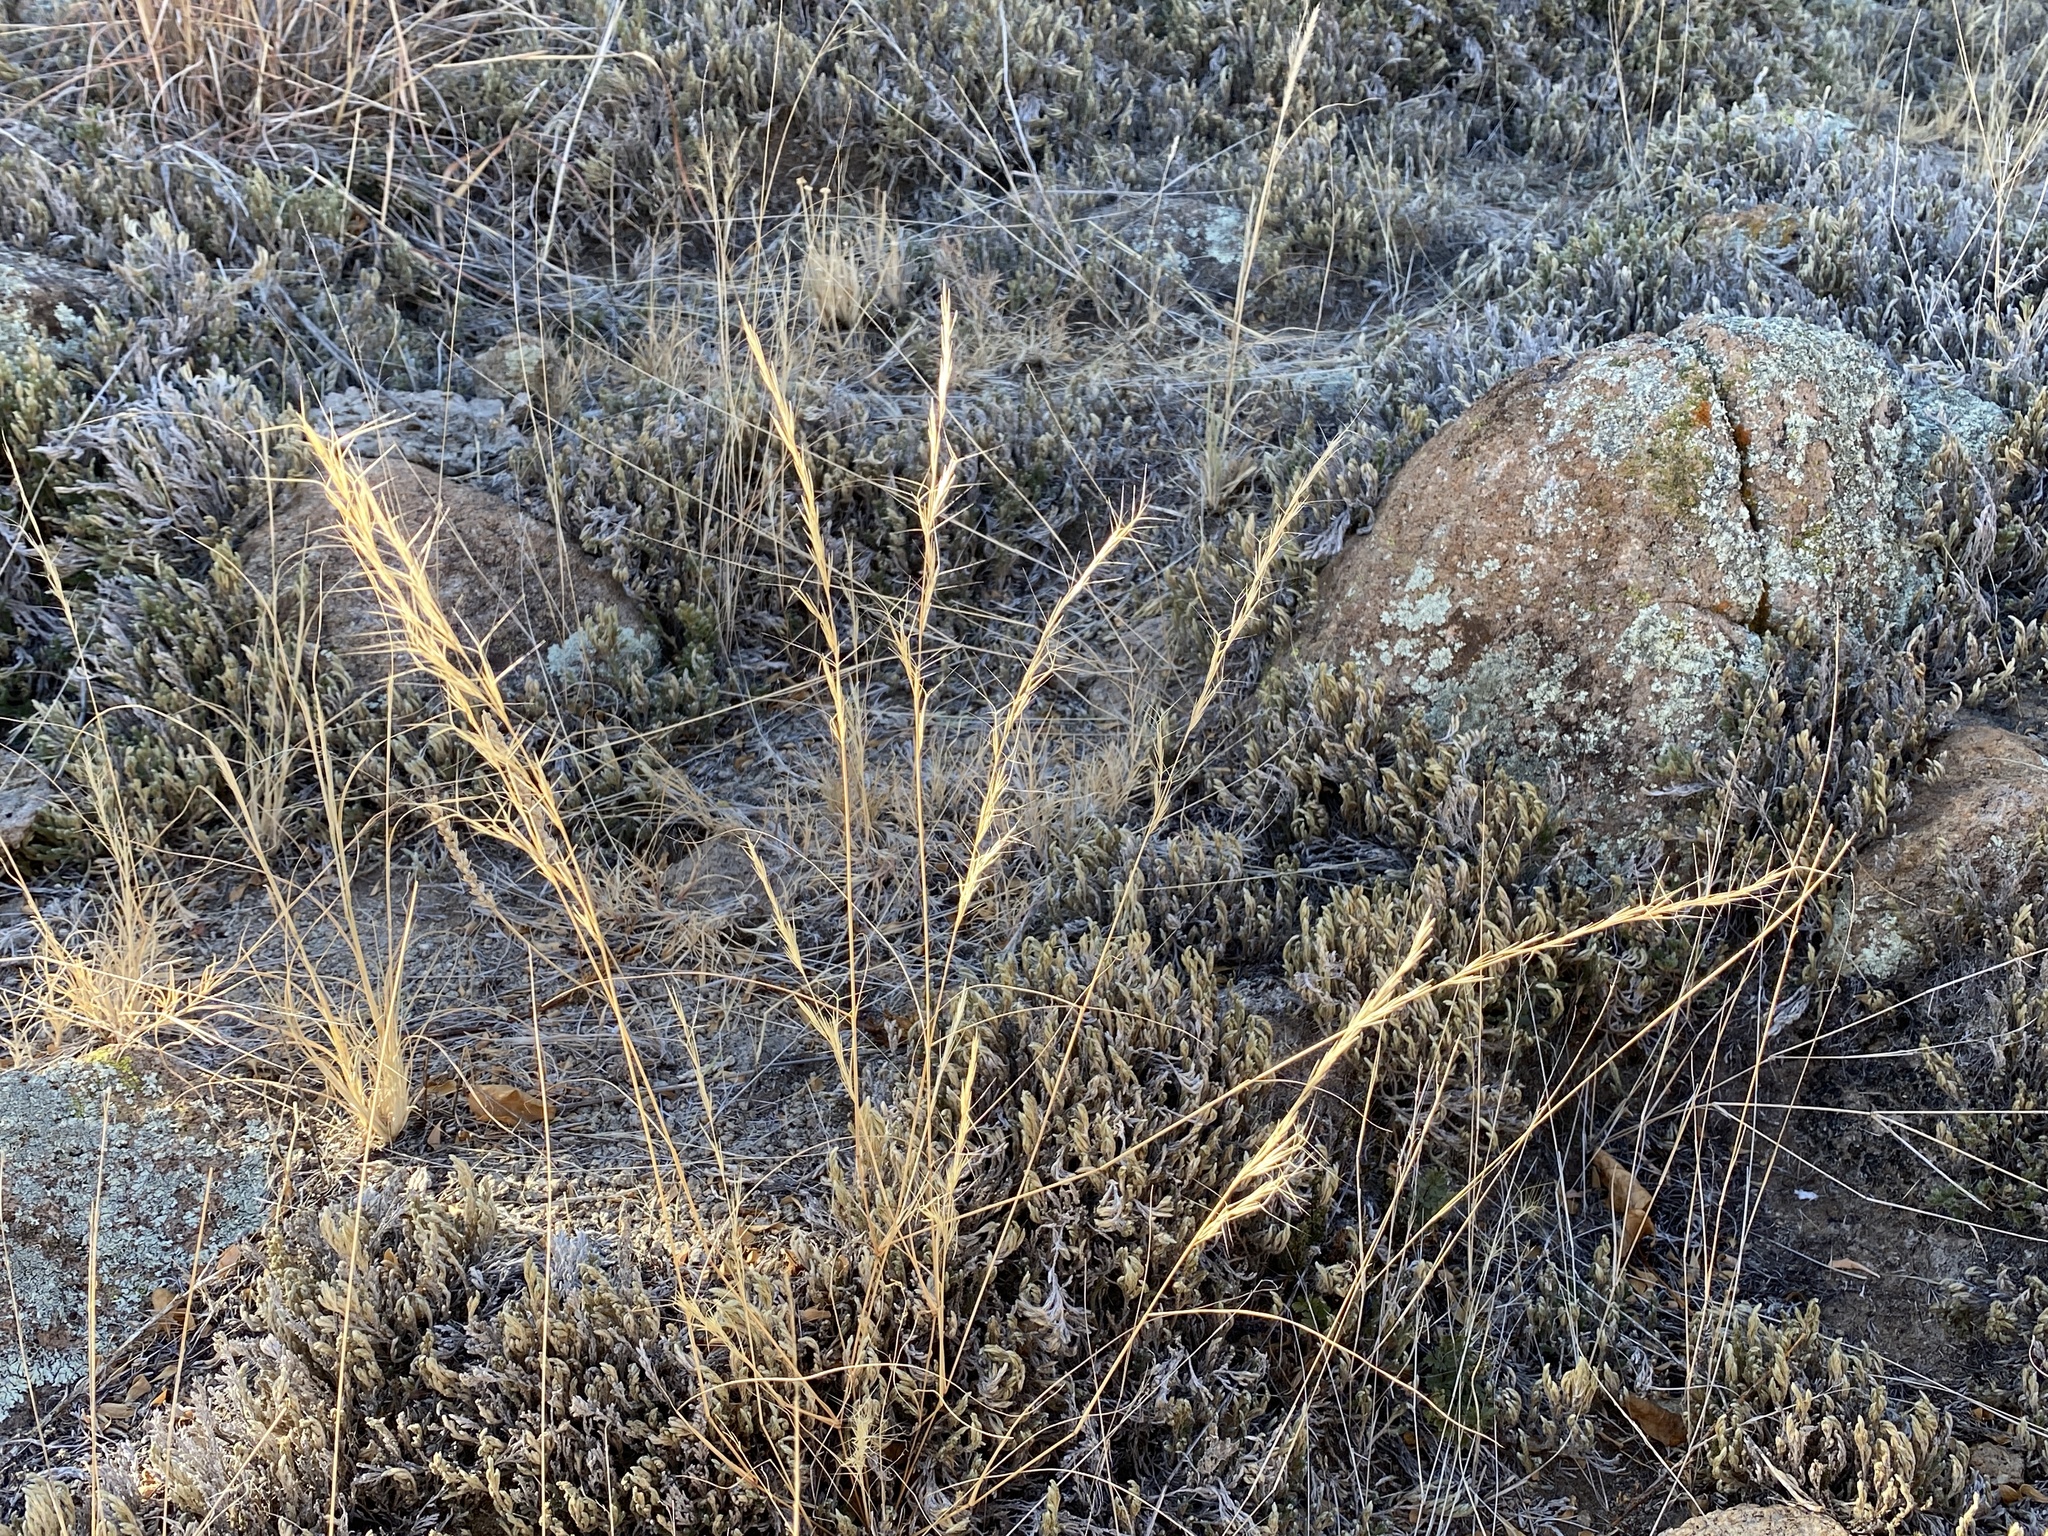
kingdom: Plantae
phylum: Tracheophyta
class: Liliopsida
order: Poales
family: Poaceae
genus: Aristida
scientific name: Aristida adscensionis
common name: Sixweeks threeawn
